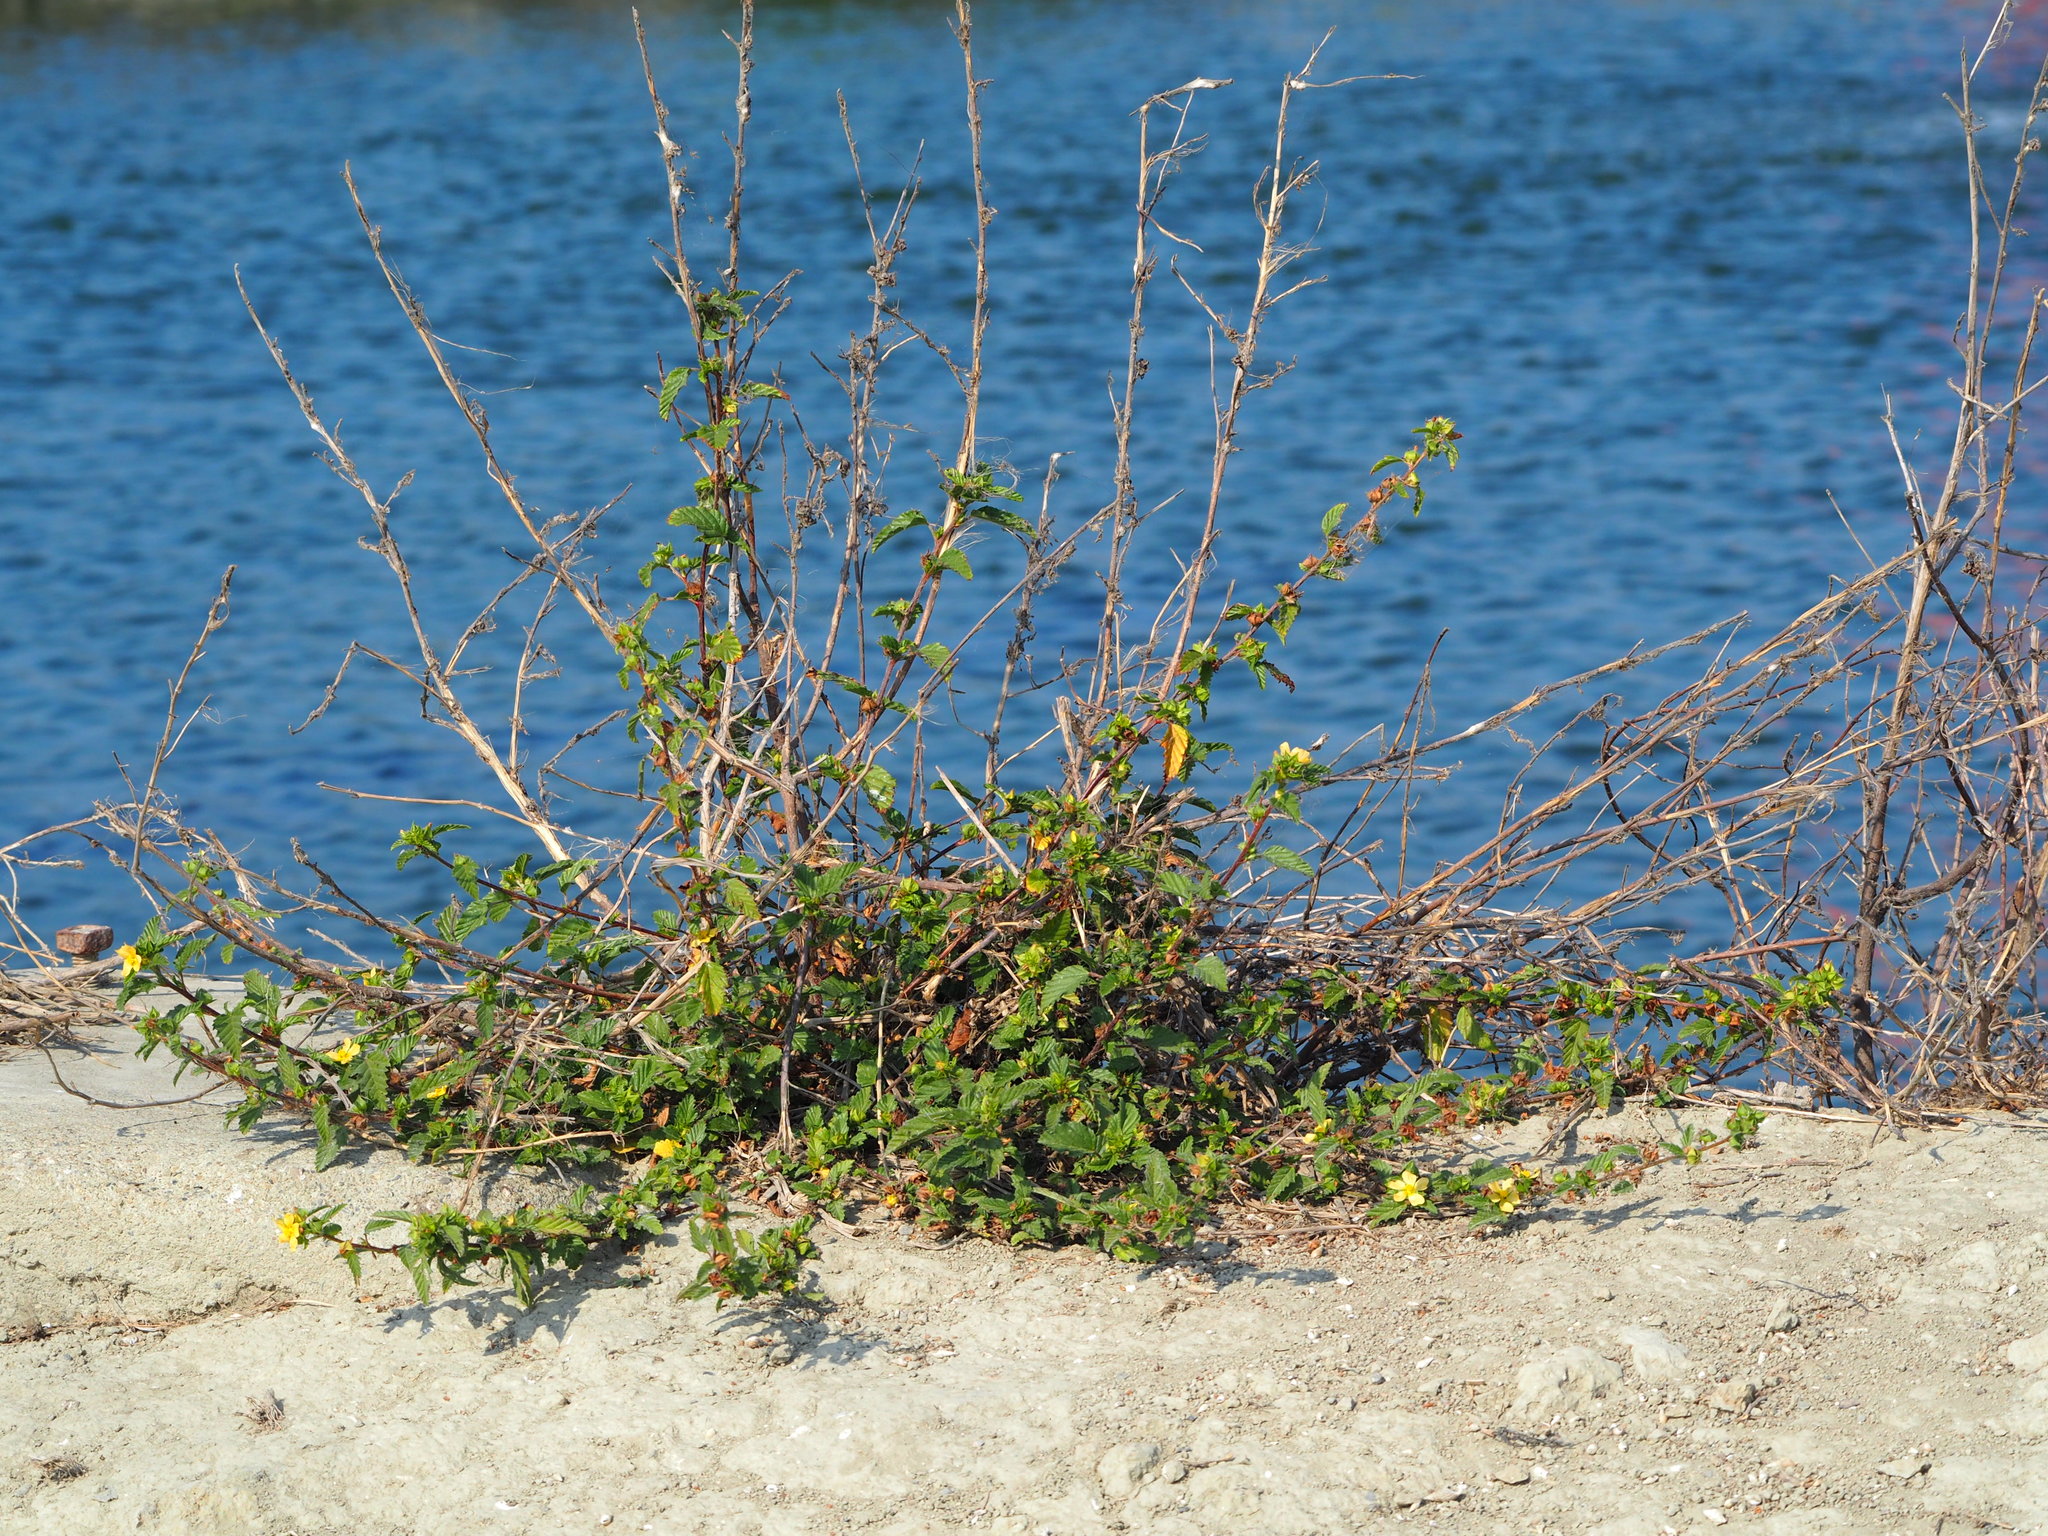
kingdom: Plantae
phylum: Tracheophyta
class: Magnoliopsida
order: Malvales
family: Malvaceae
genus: Malvastrum
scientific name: Malvastrum coromandelianum
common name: Threelobe false mallow
